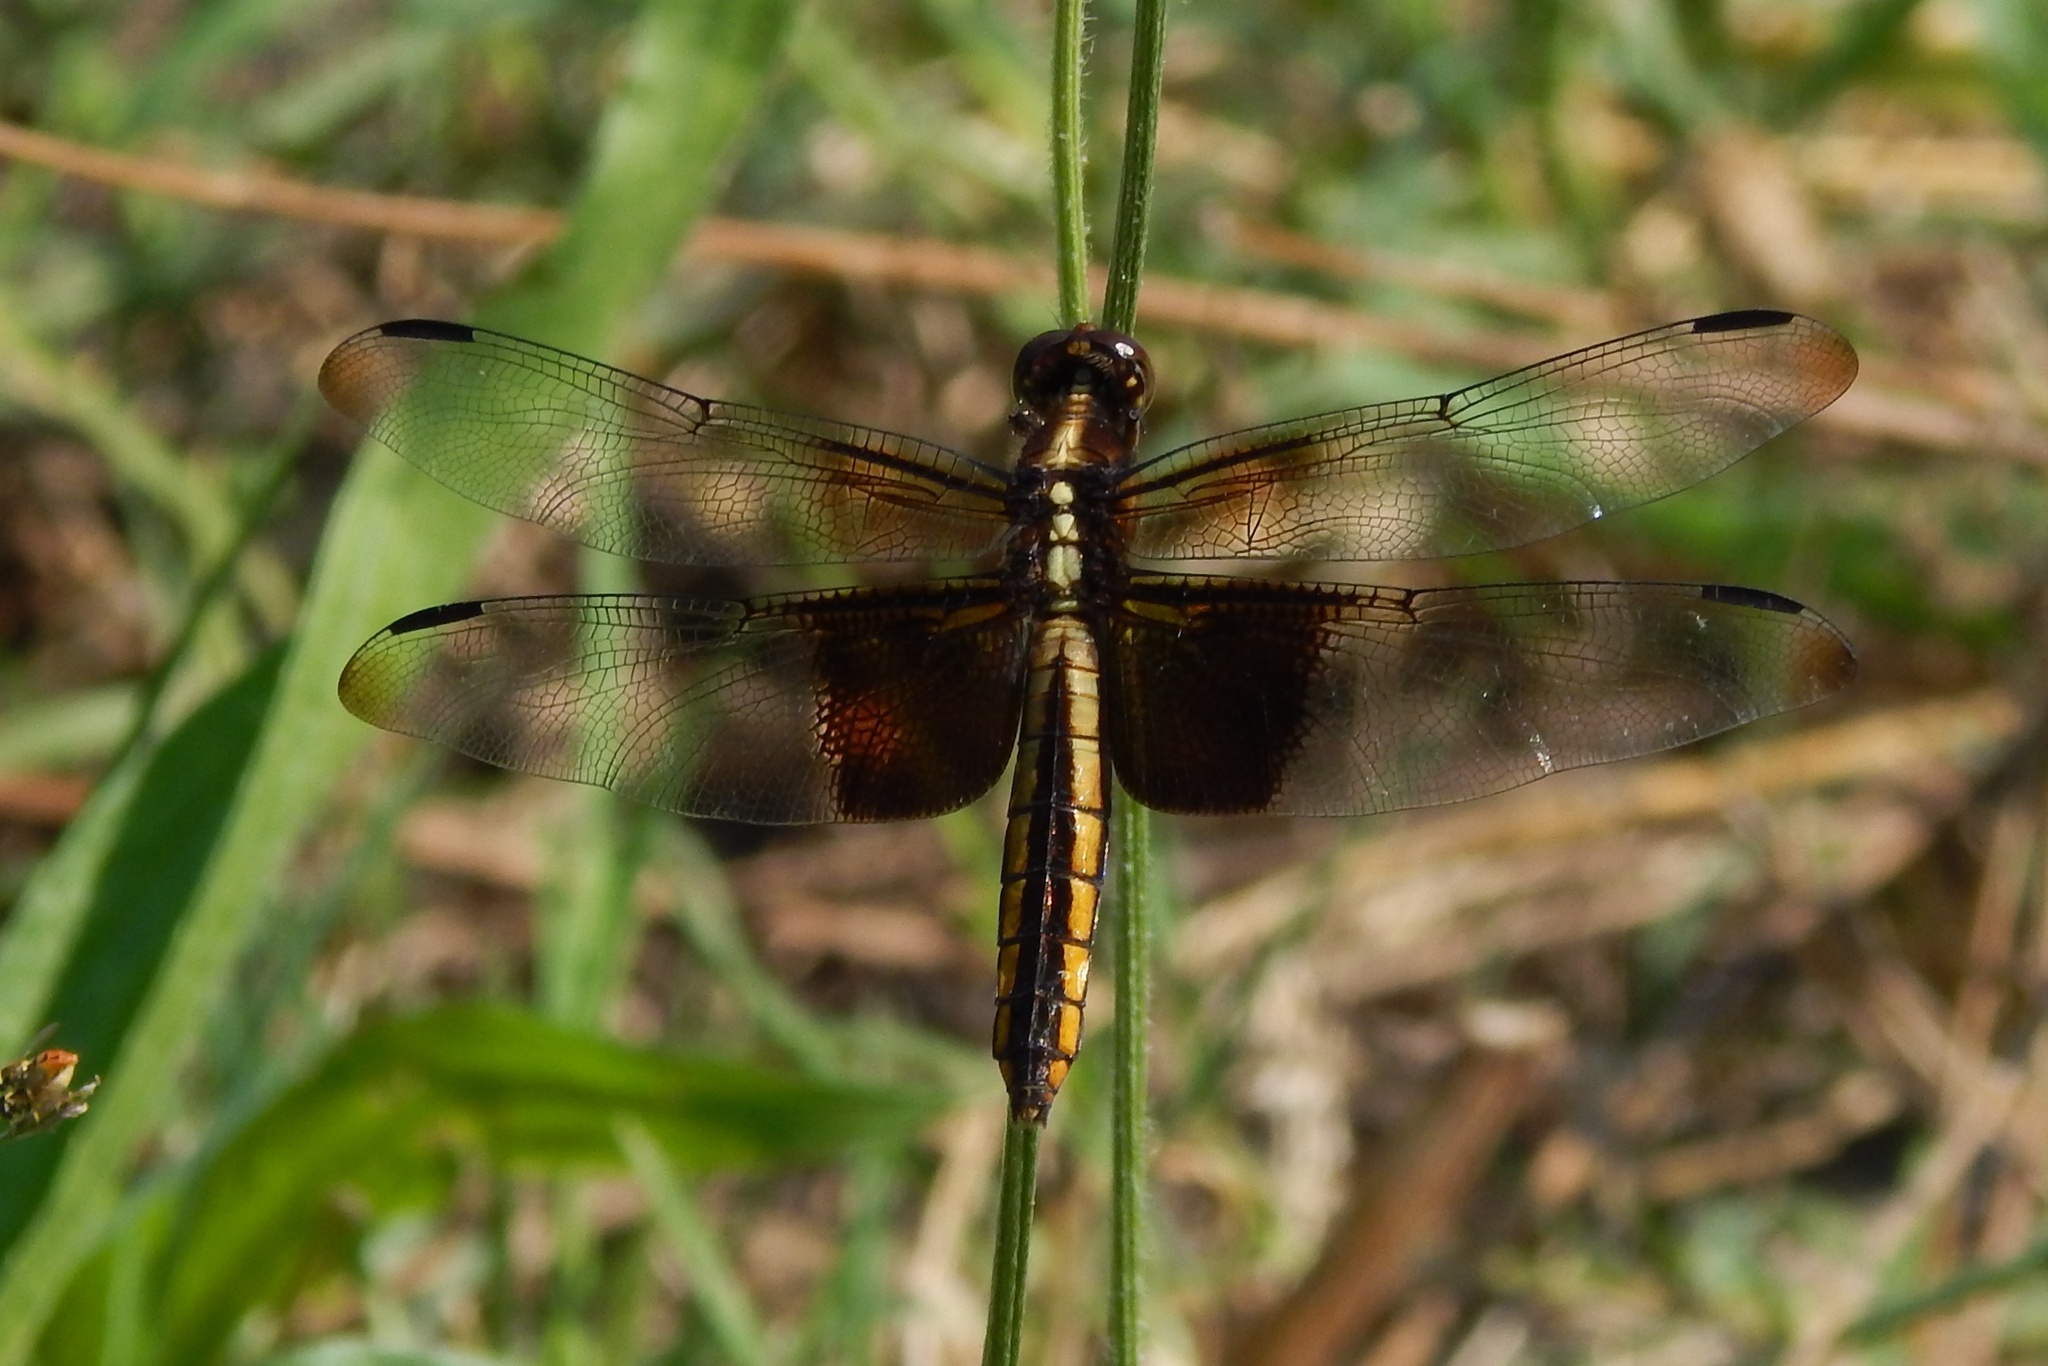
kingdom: Animalia
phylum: Arthropoda
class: Insecta
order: Odonata
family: Libellulidae
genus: Libellula
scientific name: Libellula luctuosa
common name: Widow skimmer
